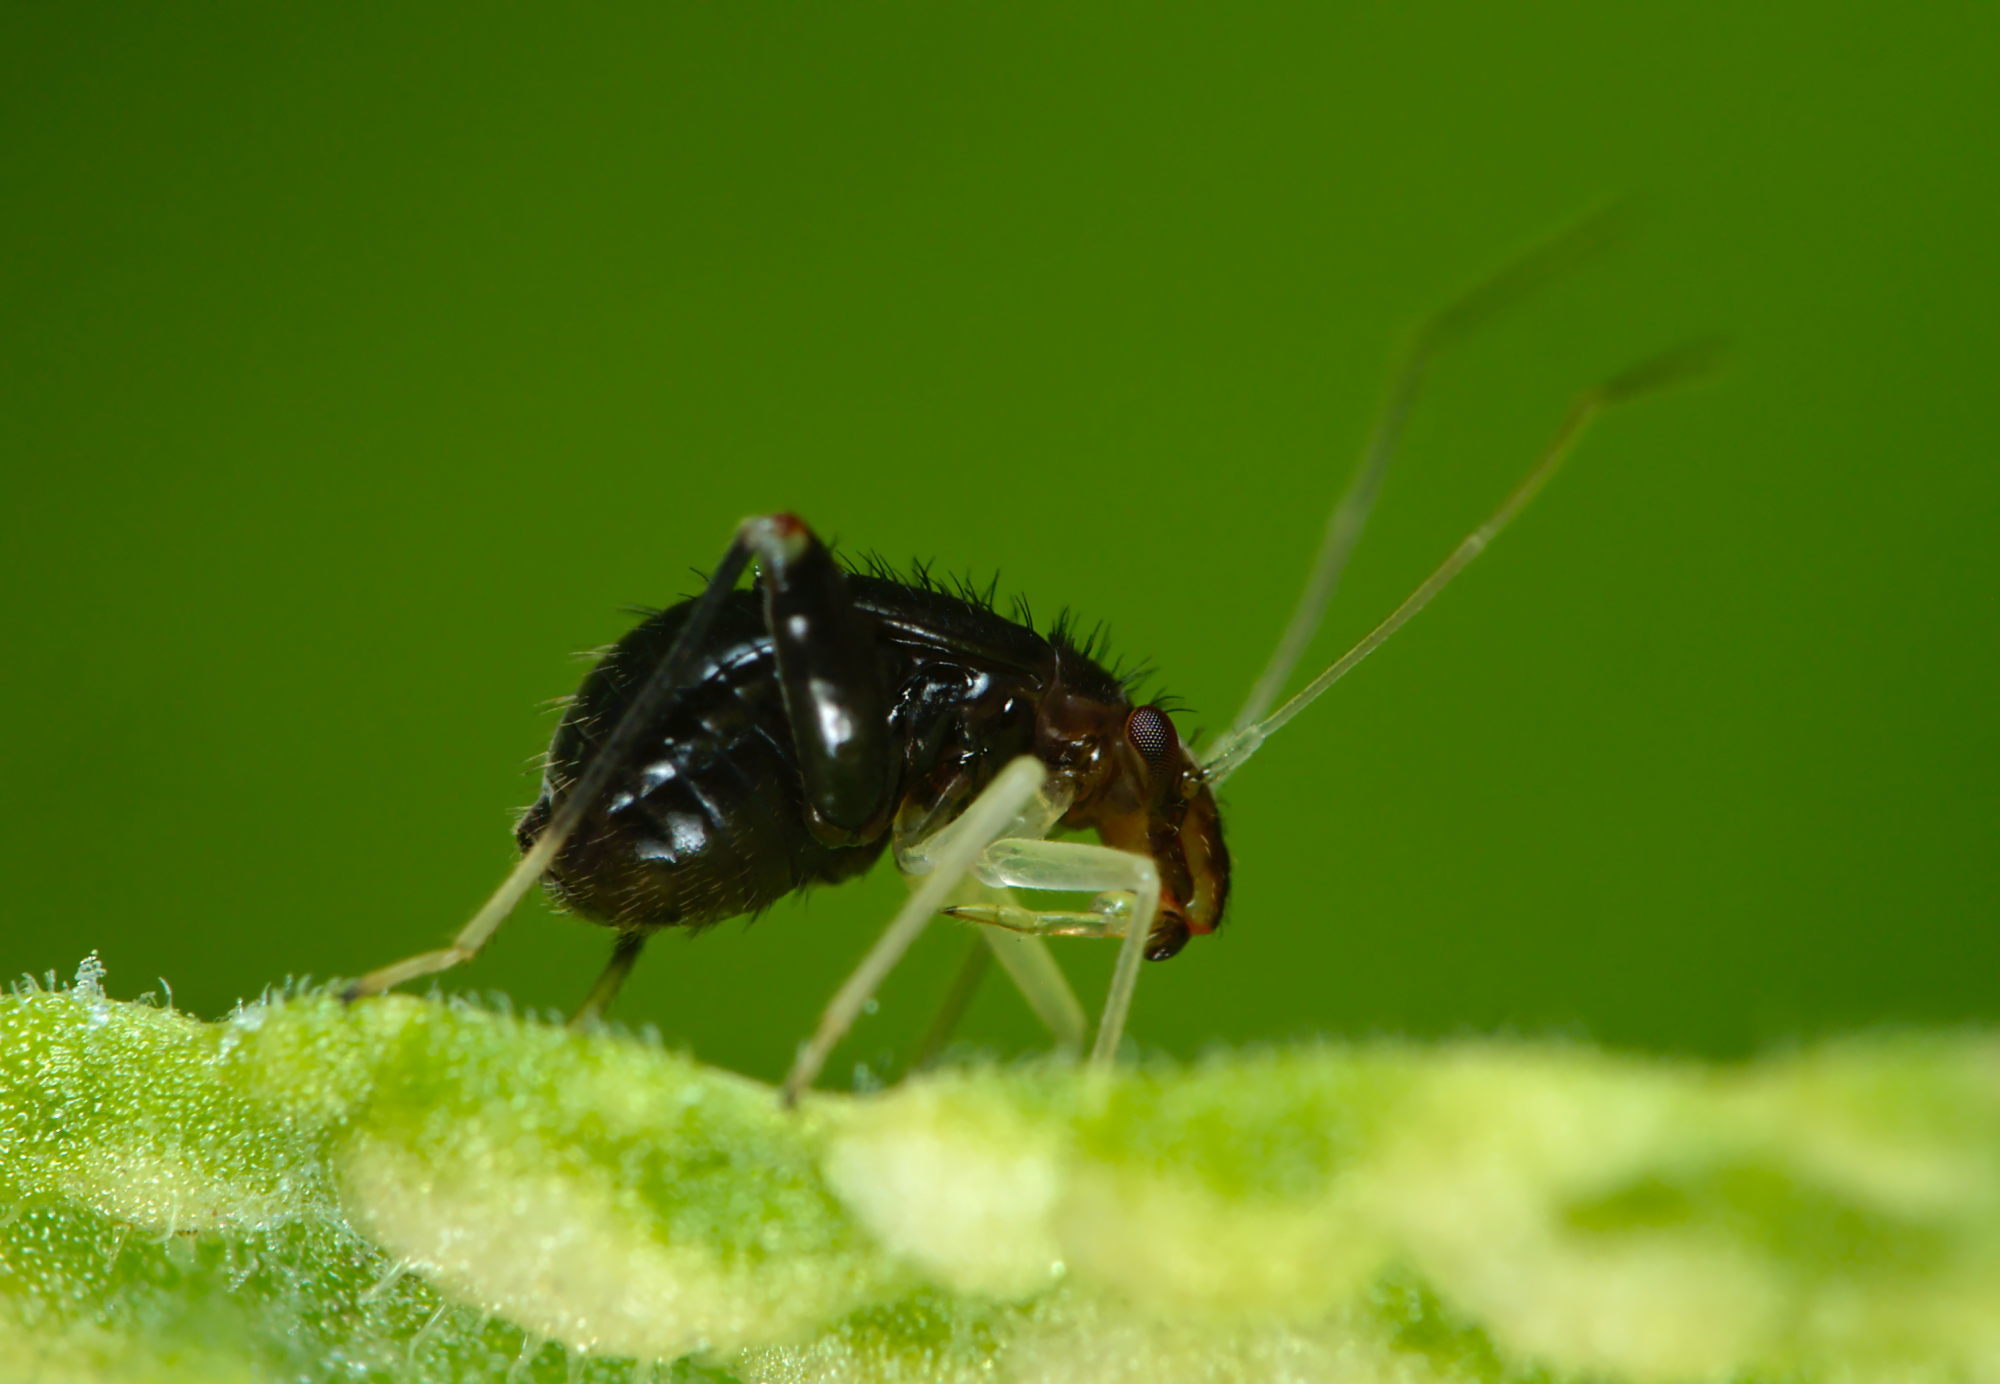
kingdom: Animalia
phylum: Arthropoda
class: Insecta
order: Hemiptera
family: Miridae
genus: Halticus
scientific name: Halticus luteicollis
